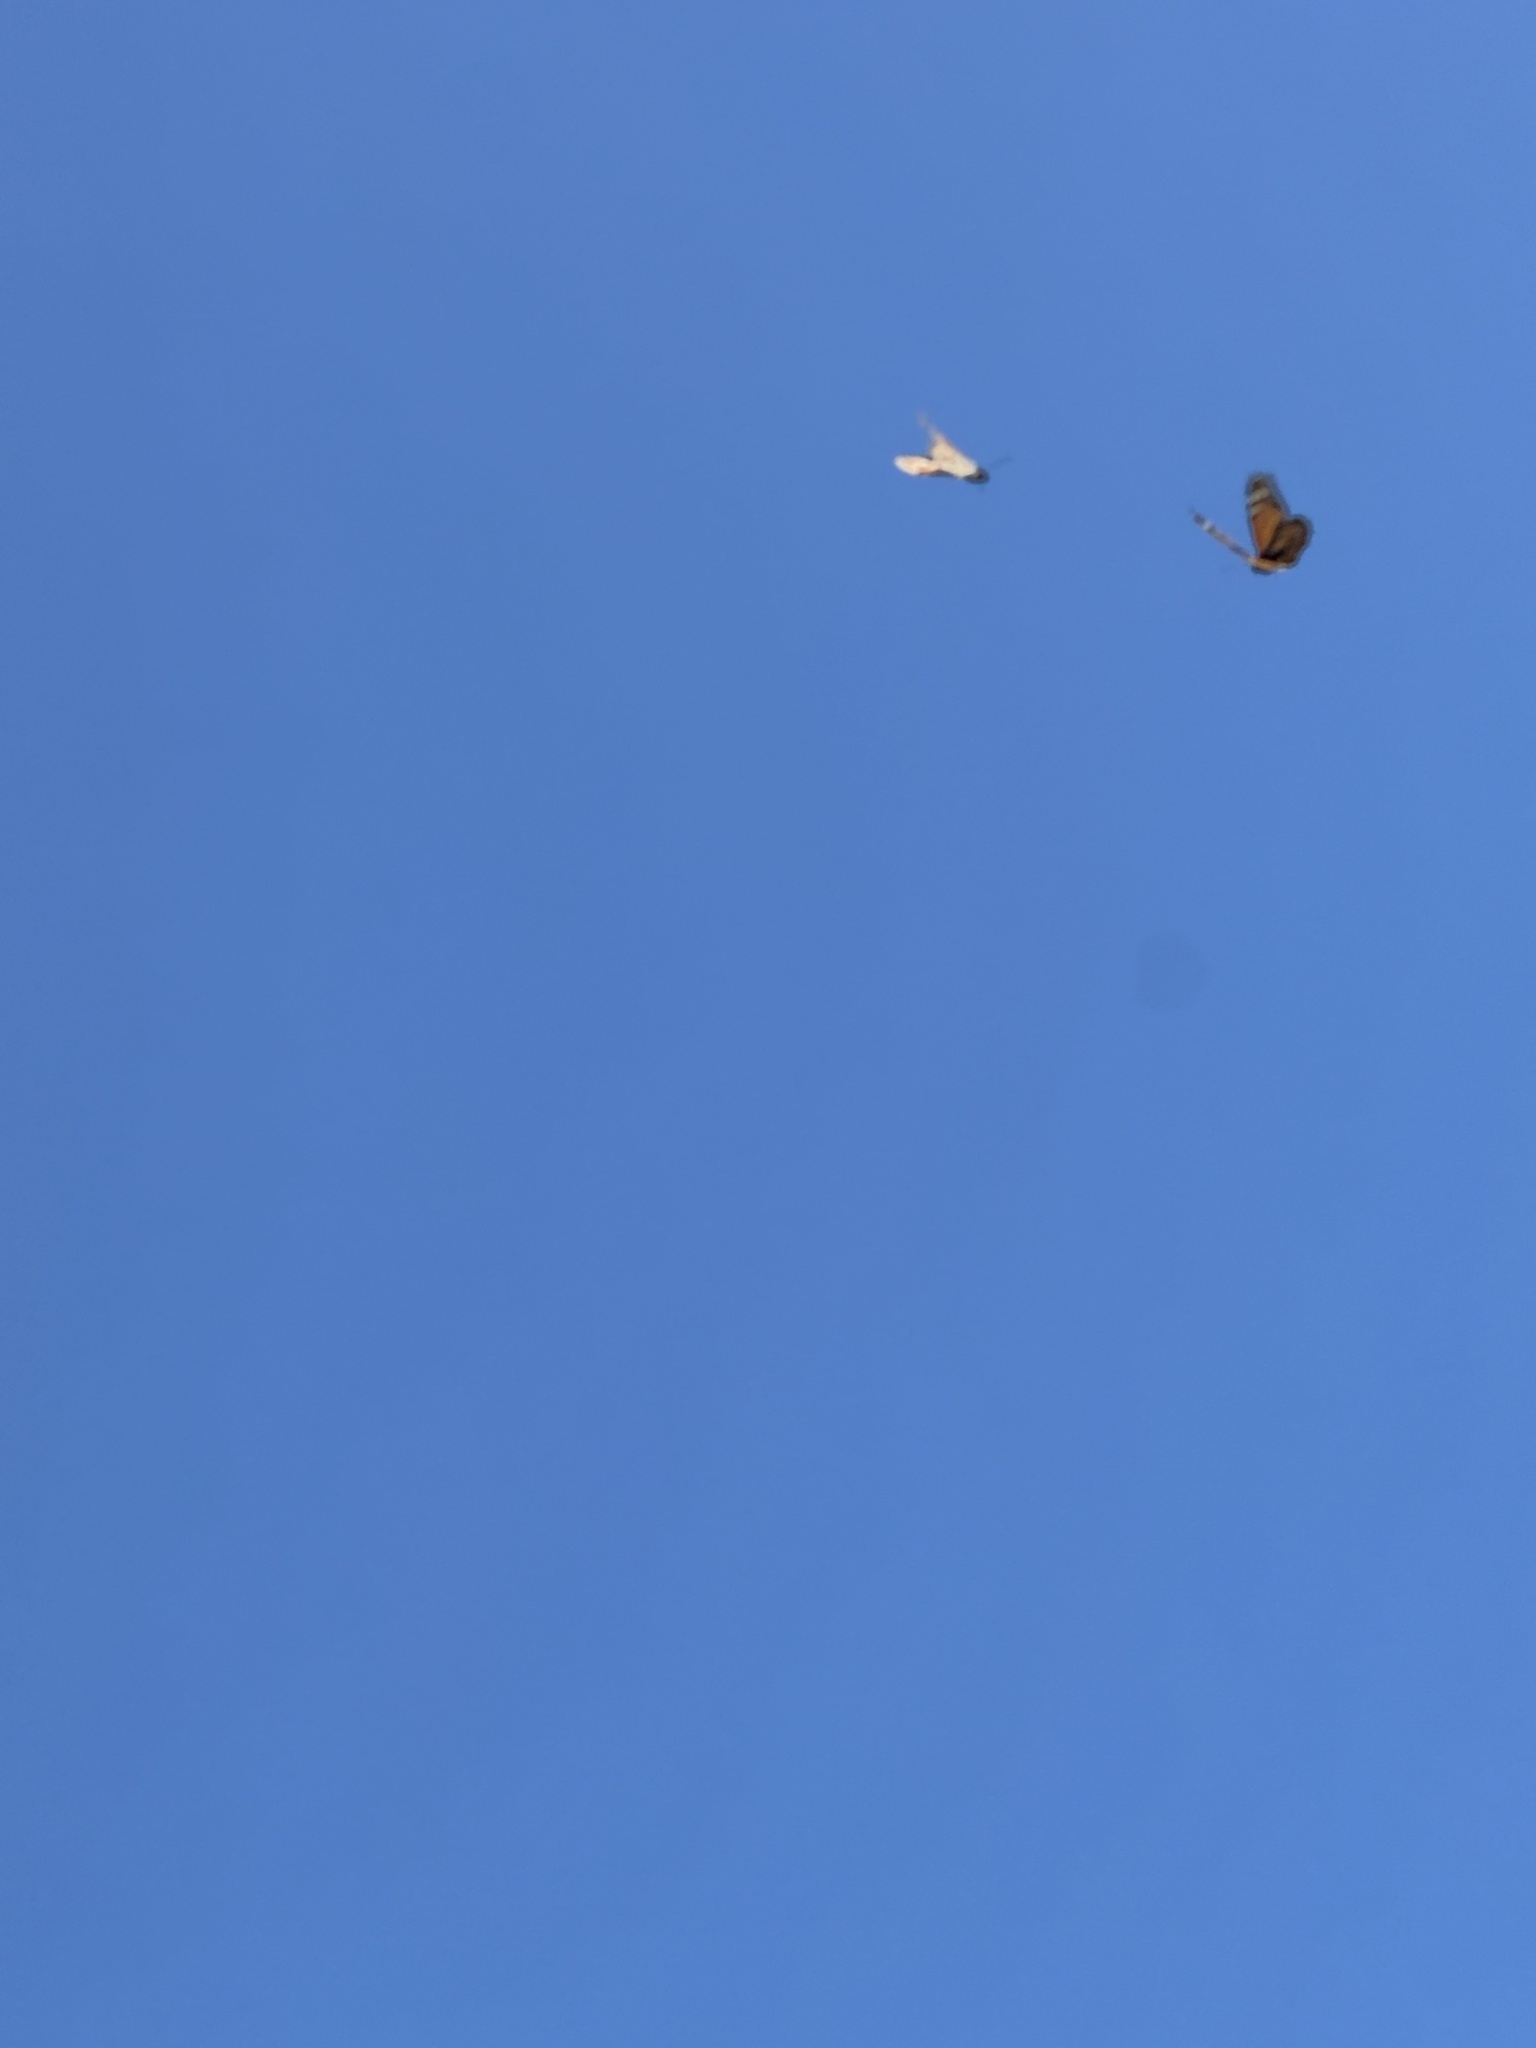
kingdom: Animalia
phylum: Arthropoda
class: Insecta
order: Lepidoptera
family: Nymphalidae
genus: Danaus
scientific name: Danaus plexippus
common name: Monarch
